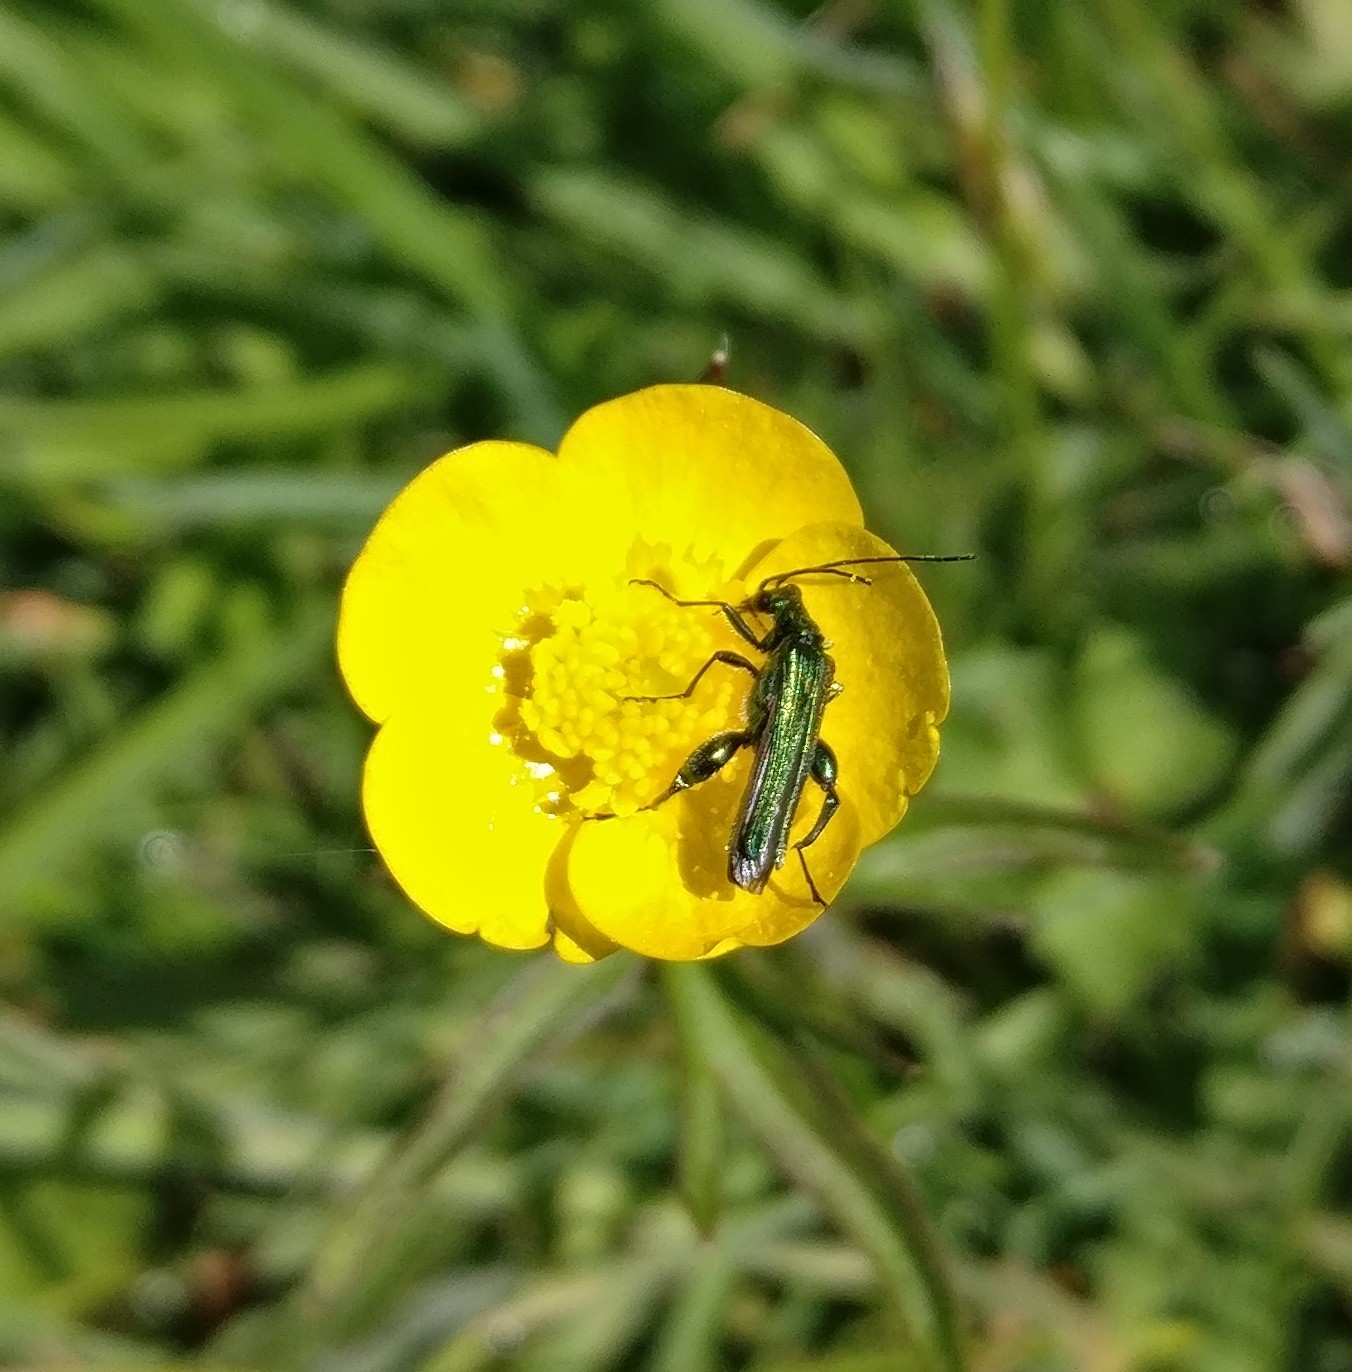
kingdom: Animalia
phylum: Arthropoda
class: Insecta
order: Coleoptera
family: Oedemeridae
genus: Oedemera
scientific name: Oedemera nobilis
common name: Swollen-thighed beetle
